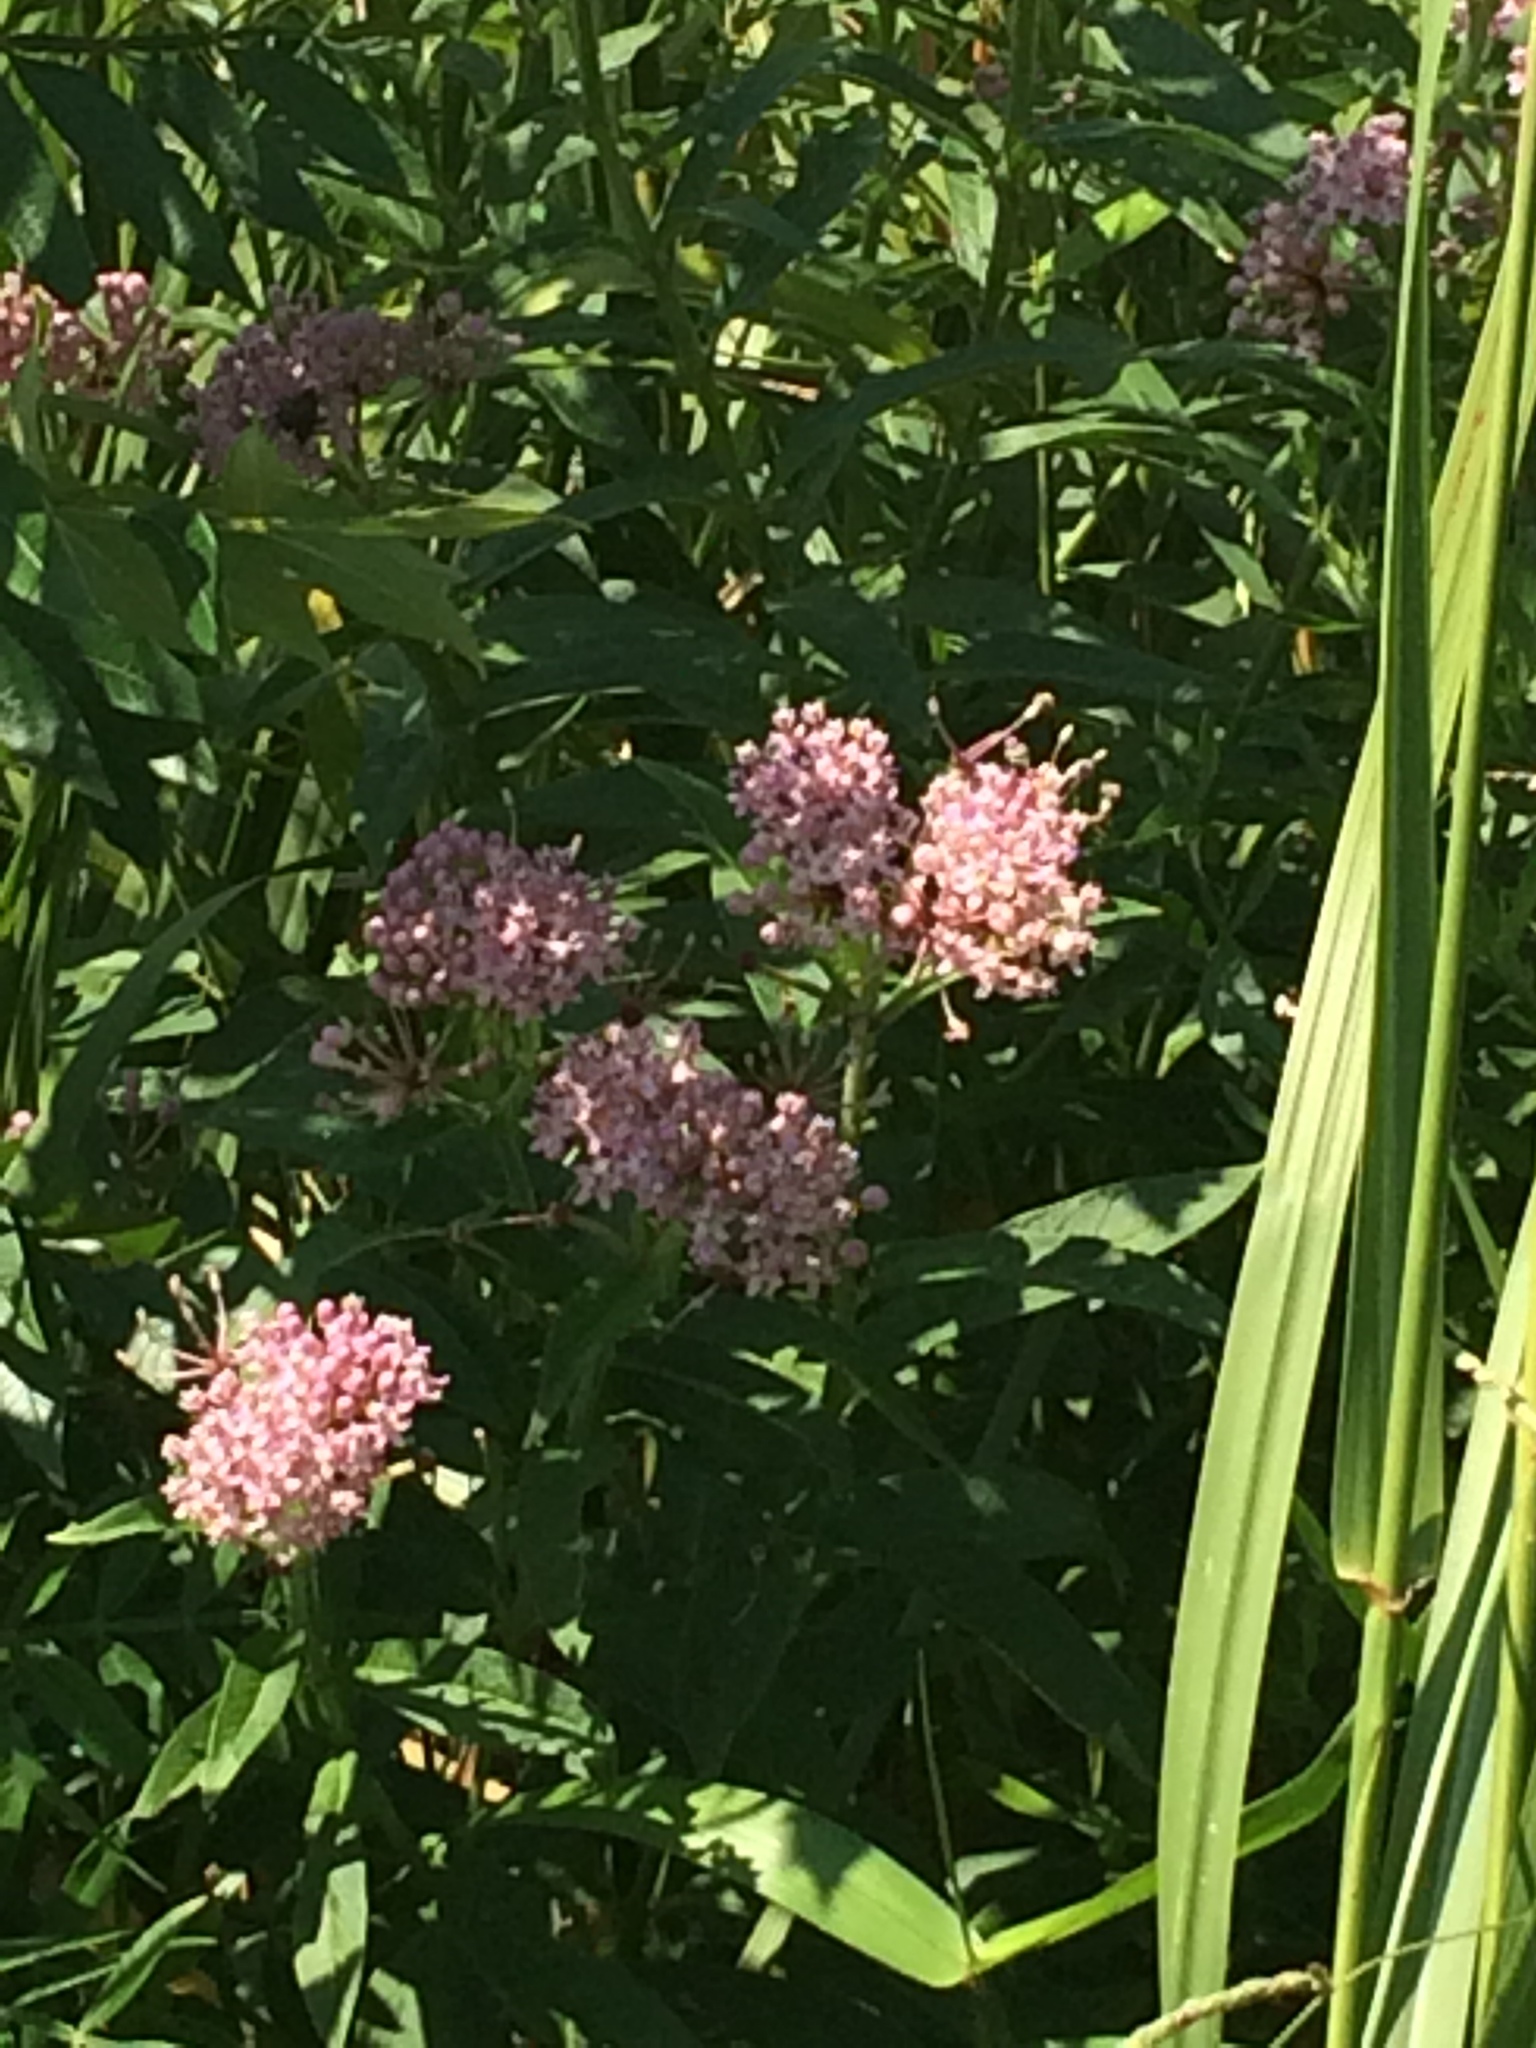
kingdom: Plantae
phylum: Tracheophyta
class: Magnoliopsida
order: Gentianales
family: Apocynaceae
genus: Asclepias
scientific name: Asclepias incarnata
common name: Swamp milkweed
